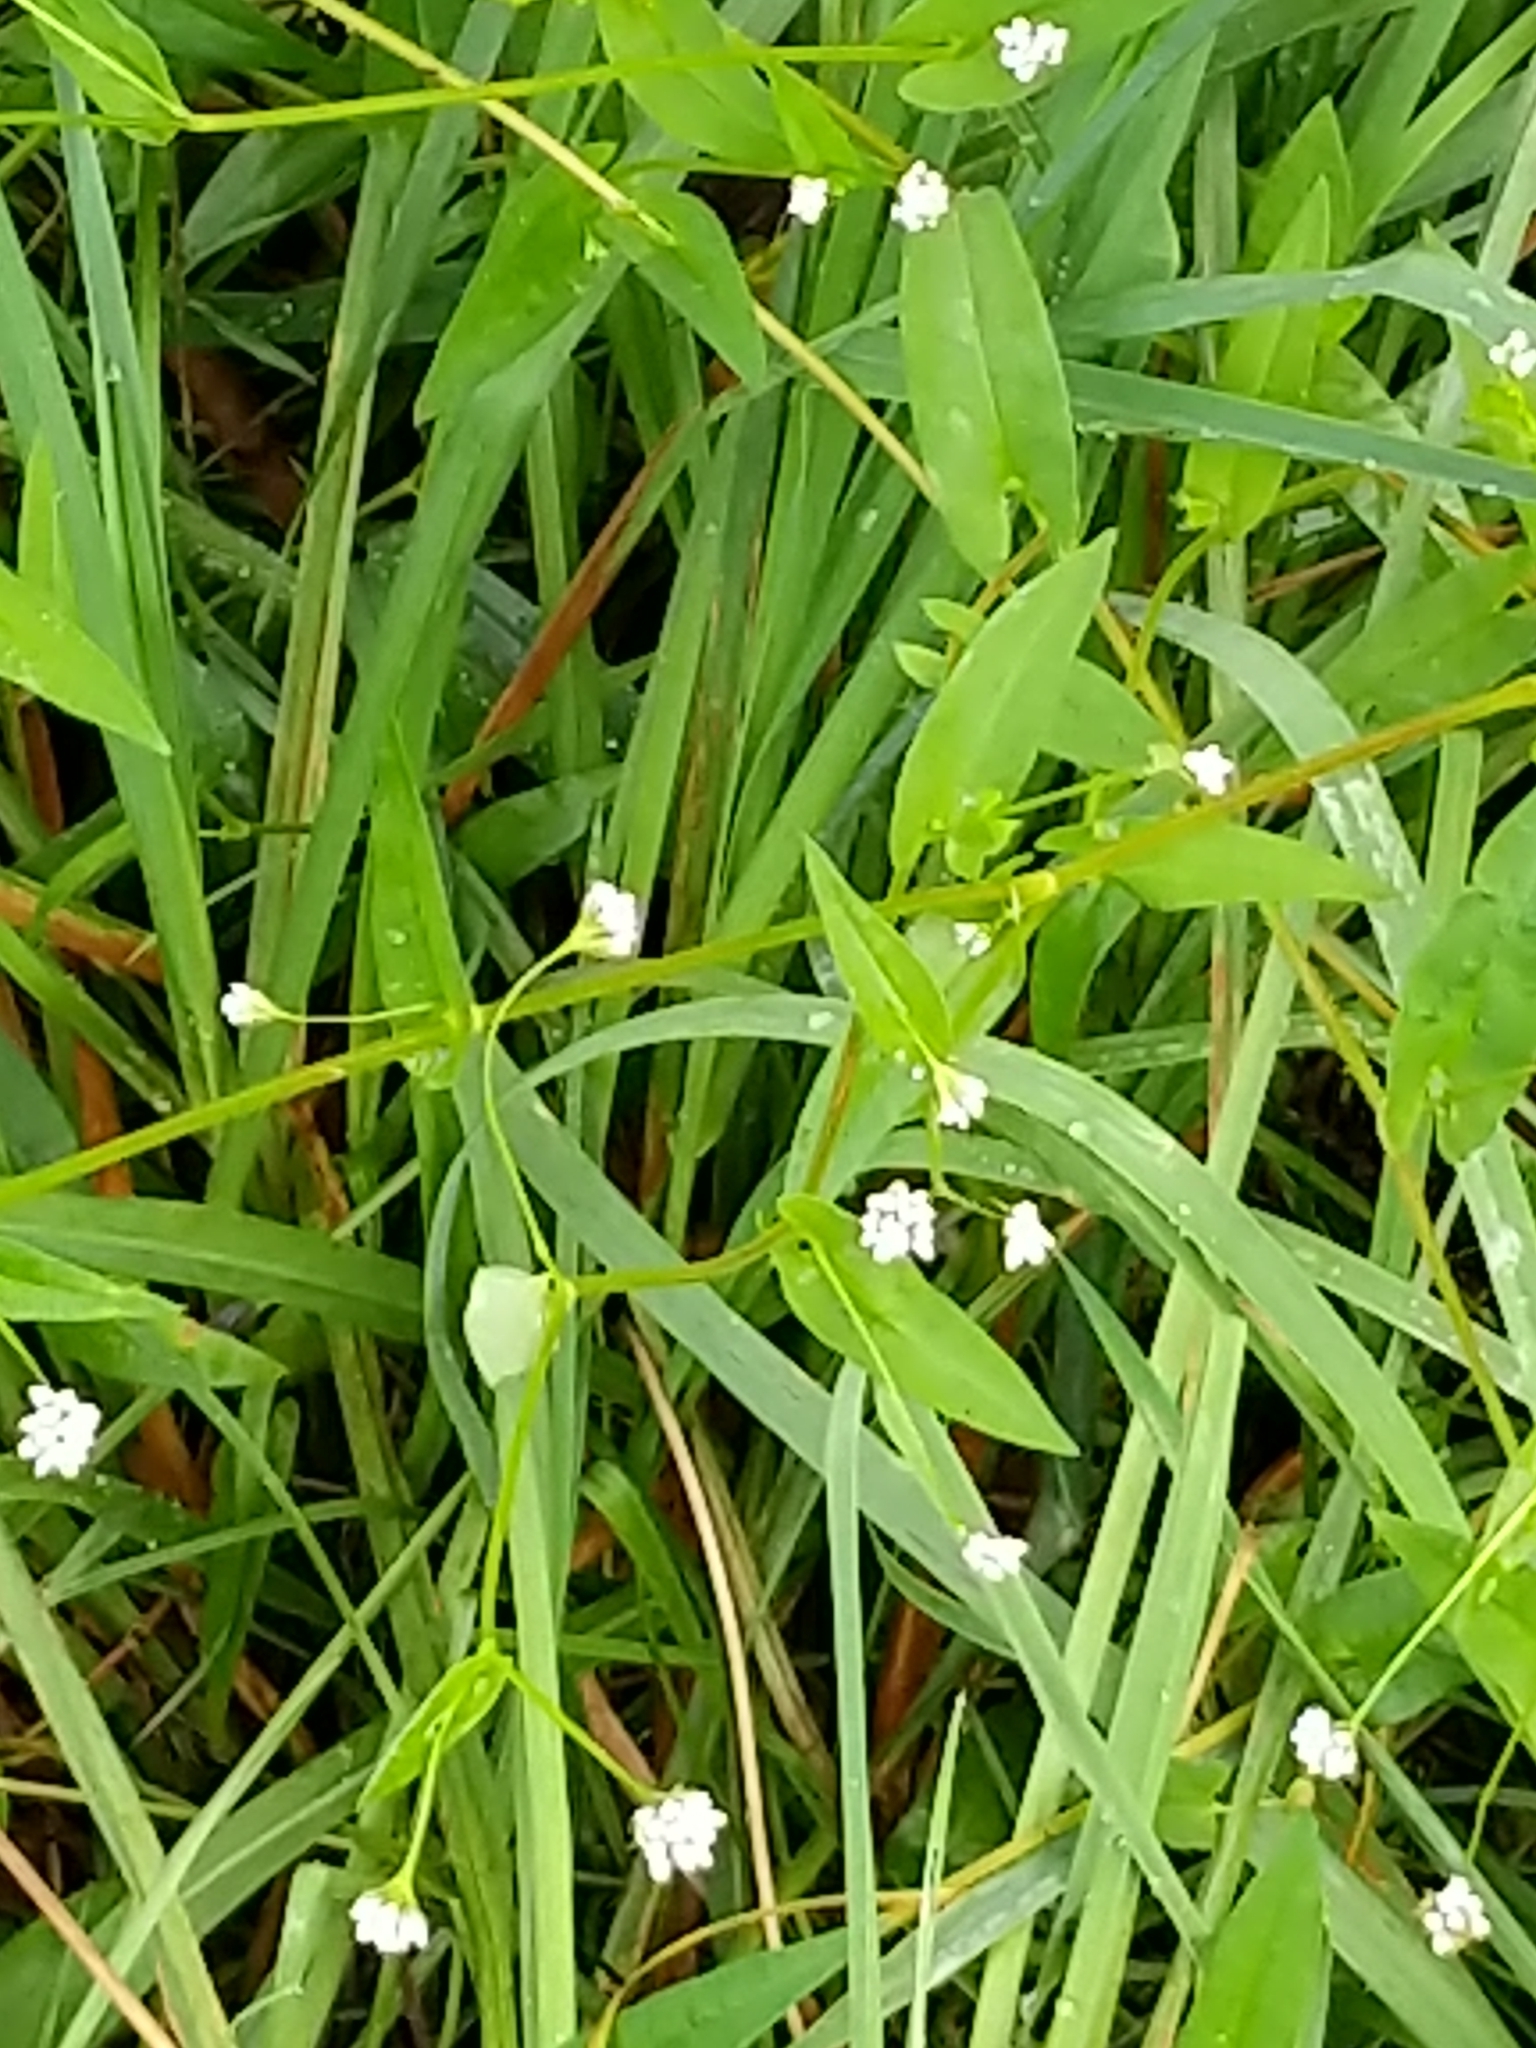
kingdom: Plantae
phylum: Tracheophyta
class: Magnoliopsida
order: Caryophyllales
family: Polygonaceae
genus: Persicaria
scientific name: Persicaria sagittata
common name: American tearthumb
